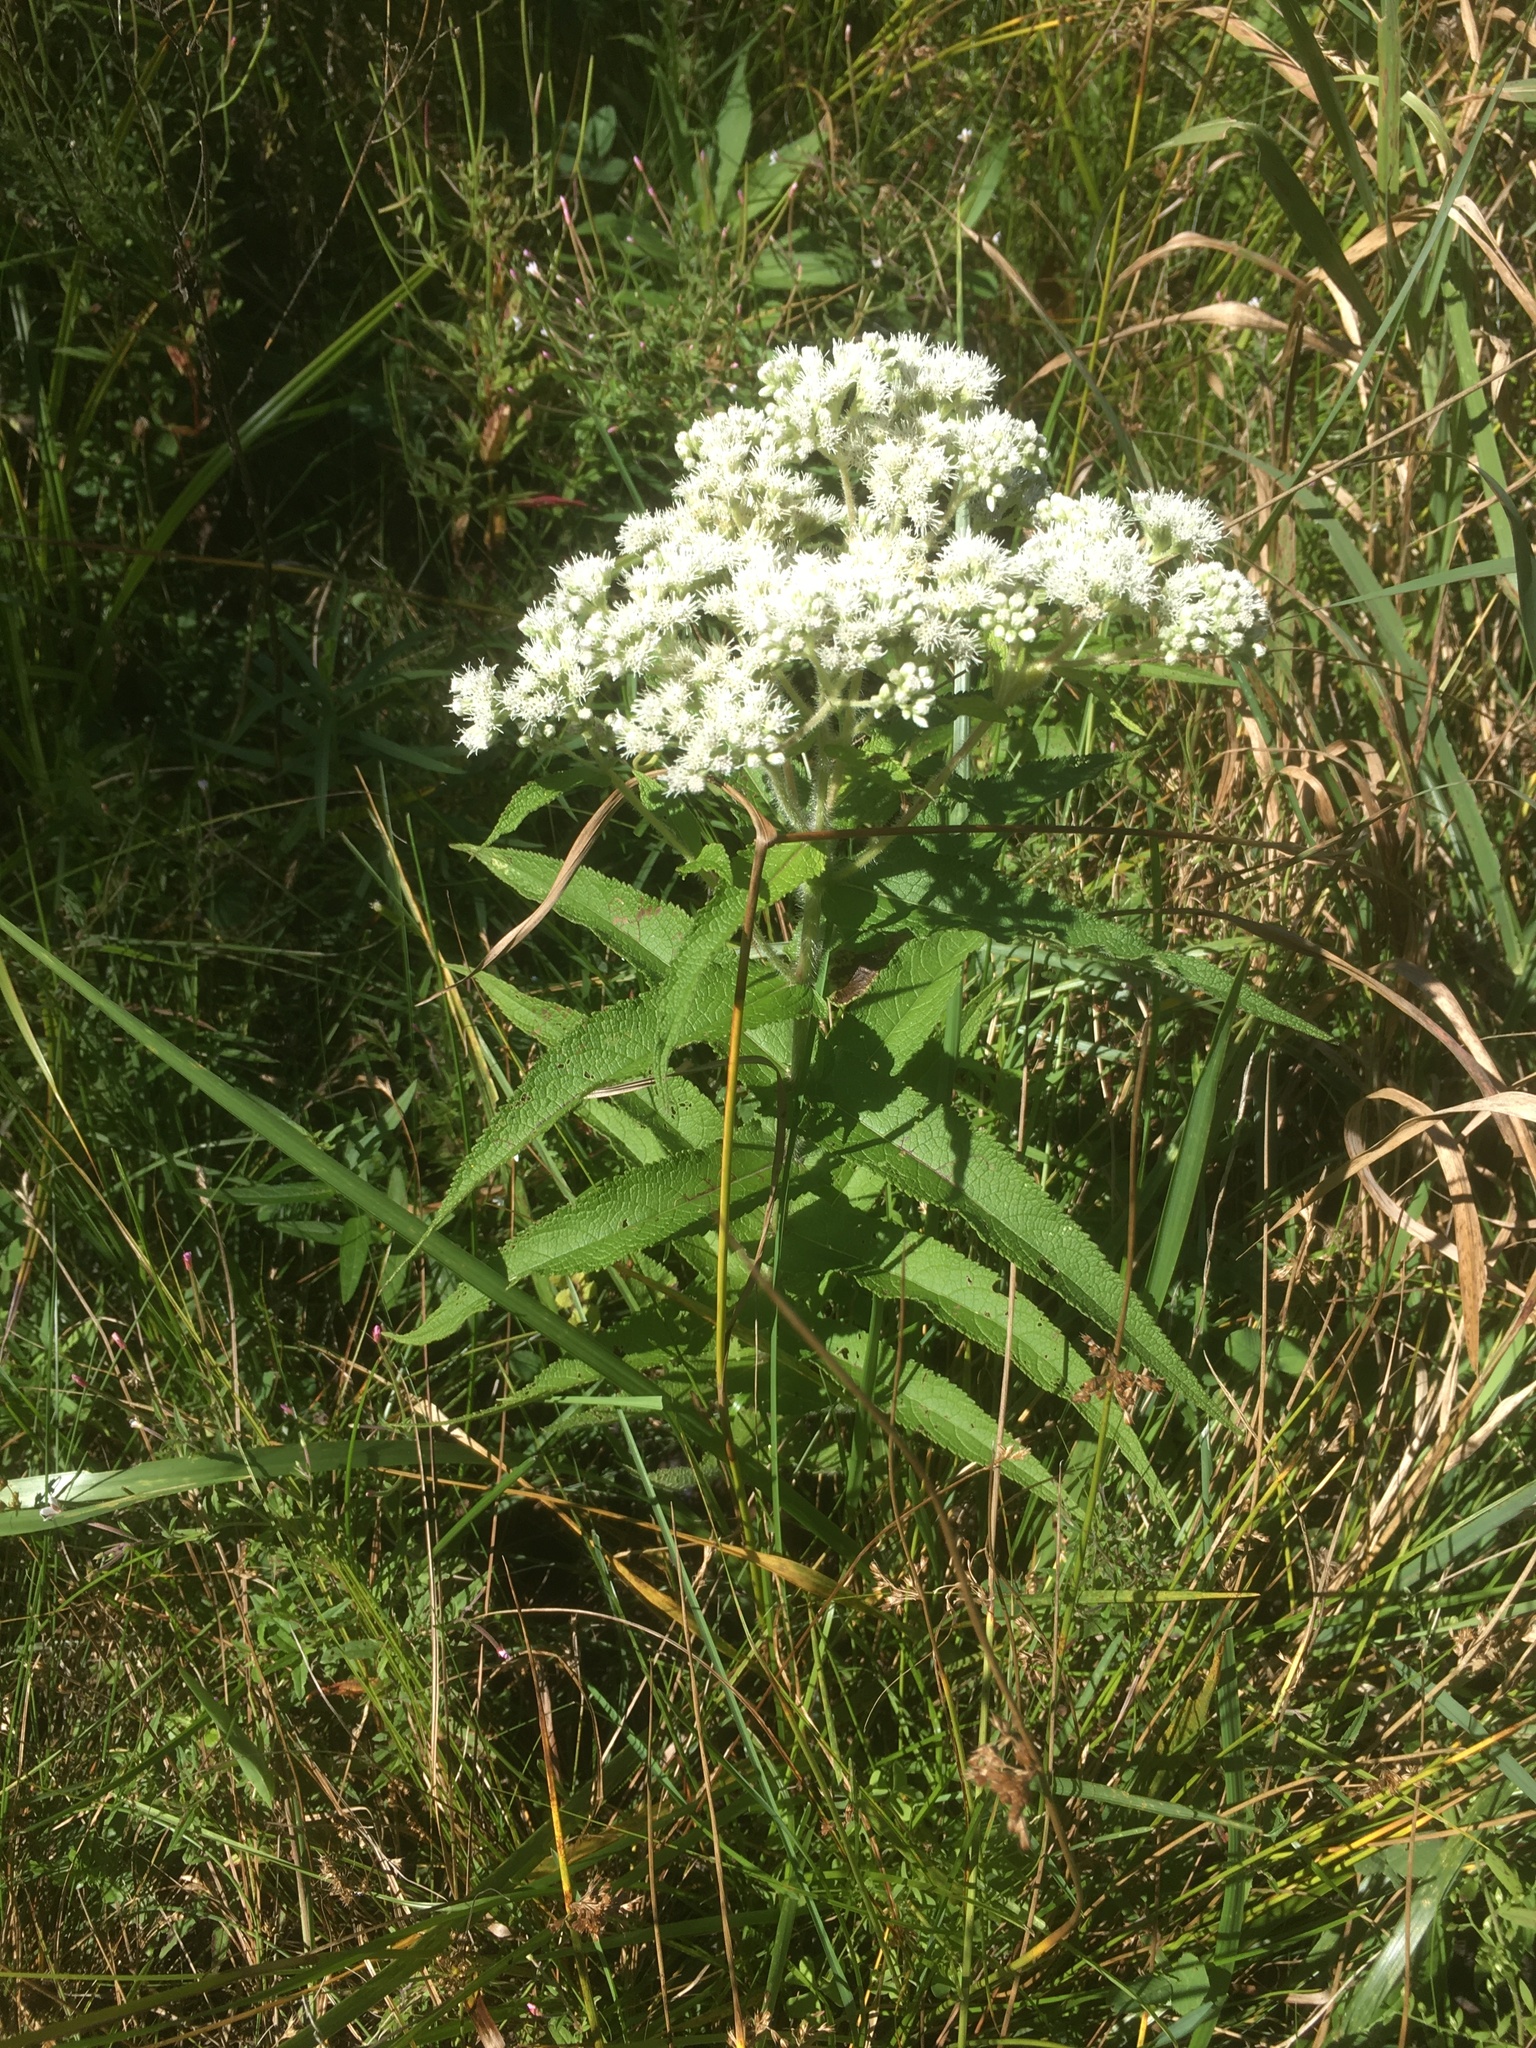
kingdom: Plantae
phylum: Tracheophyta
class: Magnoliopsida
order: Asterales
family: Asteraceae
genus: Eupatorium
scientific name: Eupatorium perfoliatum
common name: Boneset
